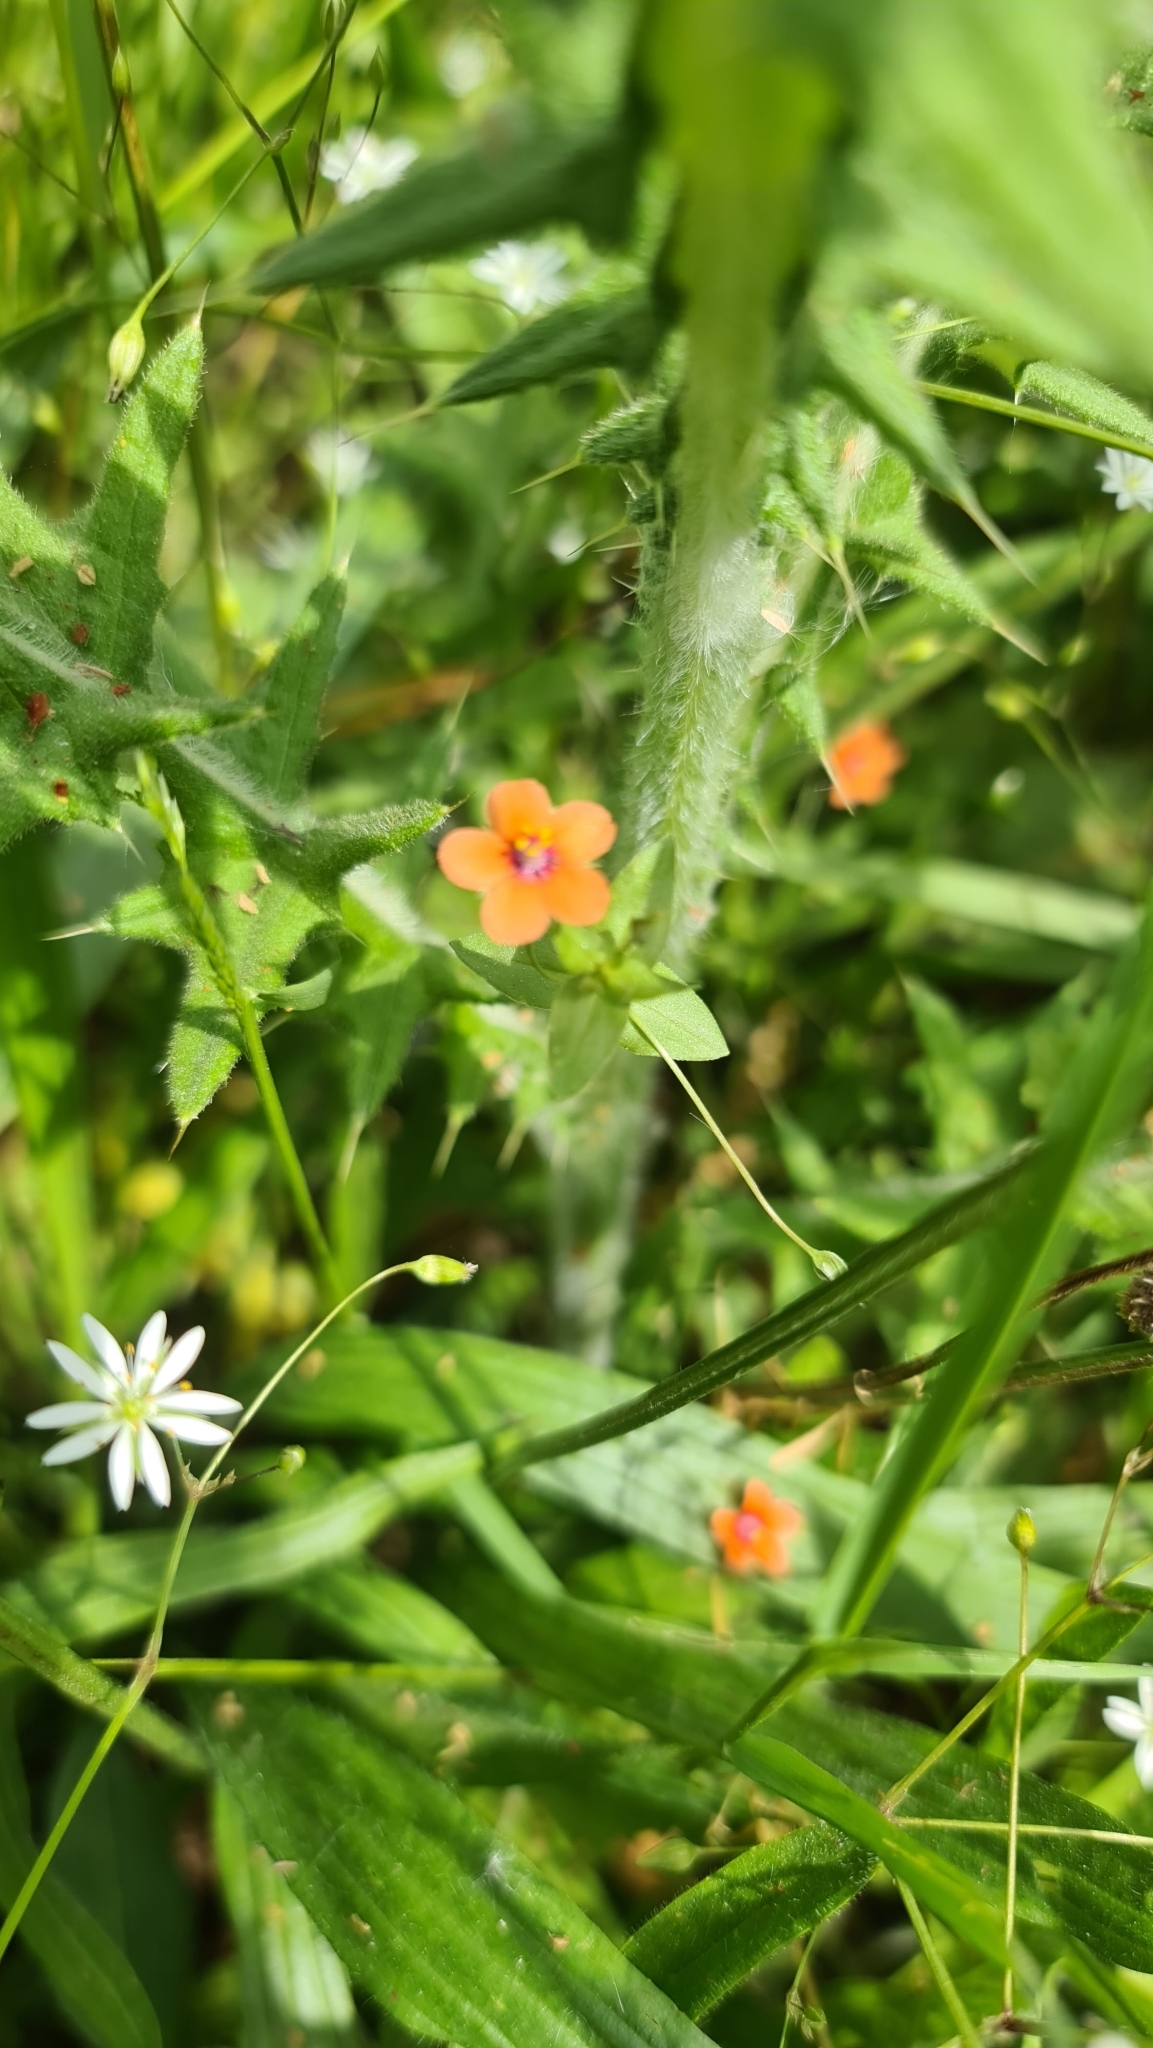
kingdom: Plantae
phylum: Tracheophyta
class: Magnoliopsida
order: Ericales
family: Primulaceae
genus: Lysimachia
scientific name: Lysimachia arvensis
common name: Scarlet pimpernel
